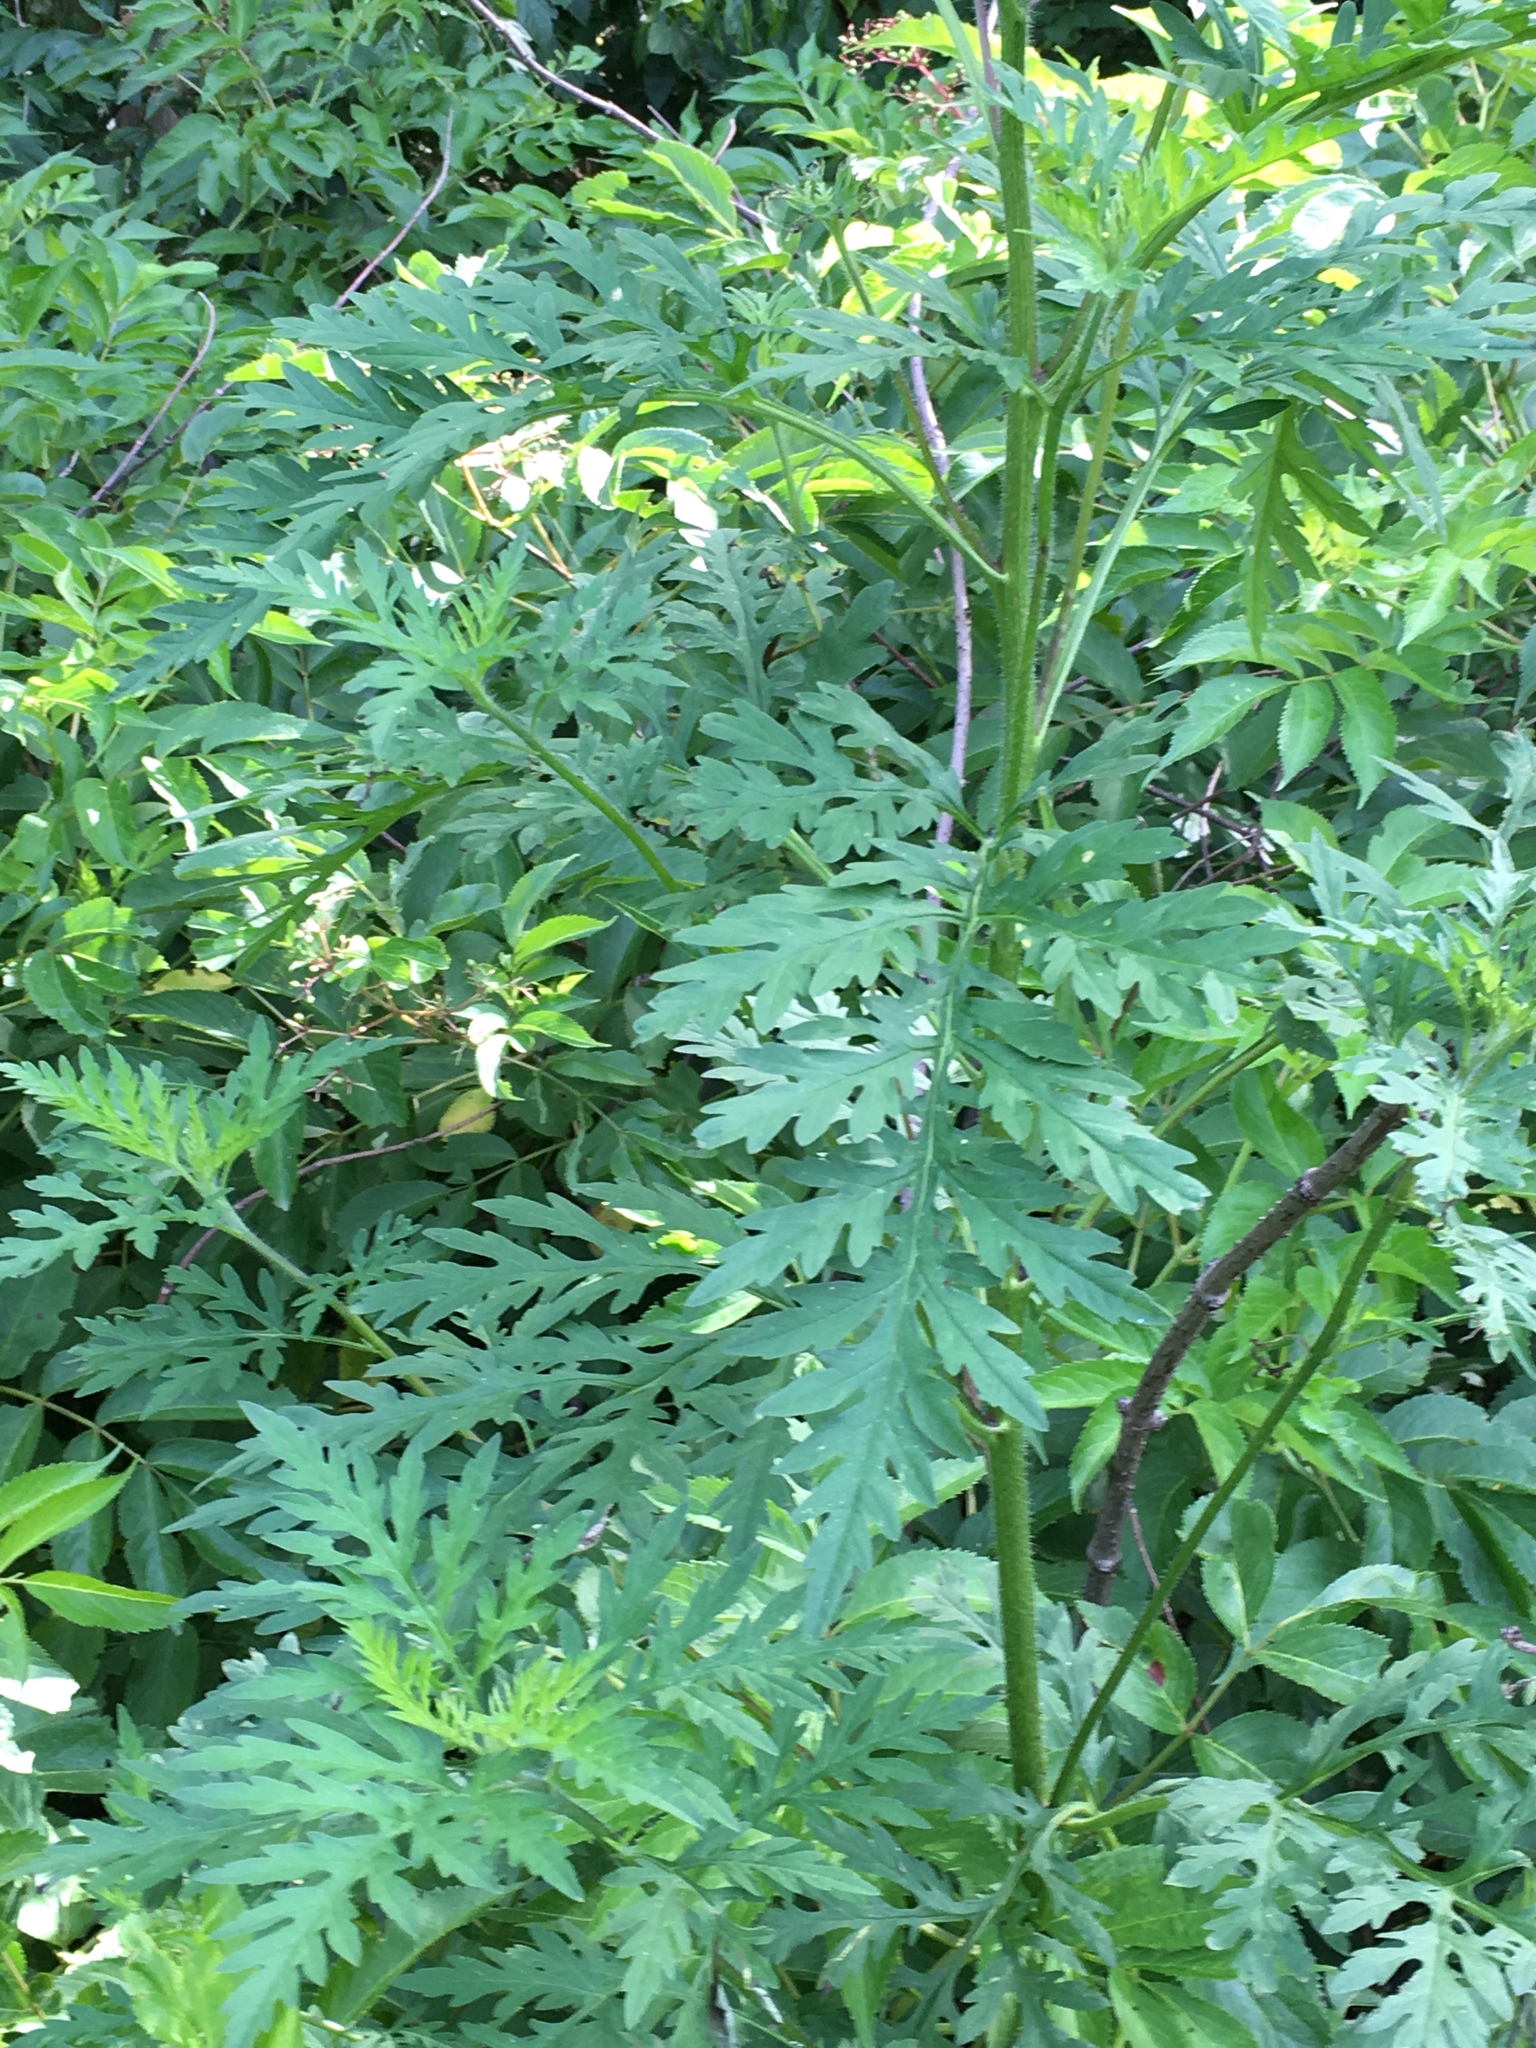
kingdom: Plantae
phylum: Tracheophyta
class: Magnoliopsida
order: Asterales
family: Asteraceae
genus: Ambrosia
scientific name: Ambrosia artemisiifolia
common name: Annual ragweed
